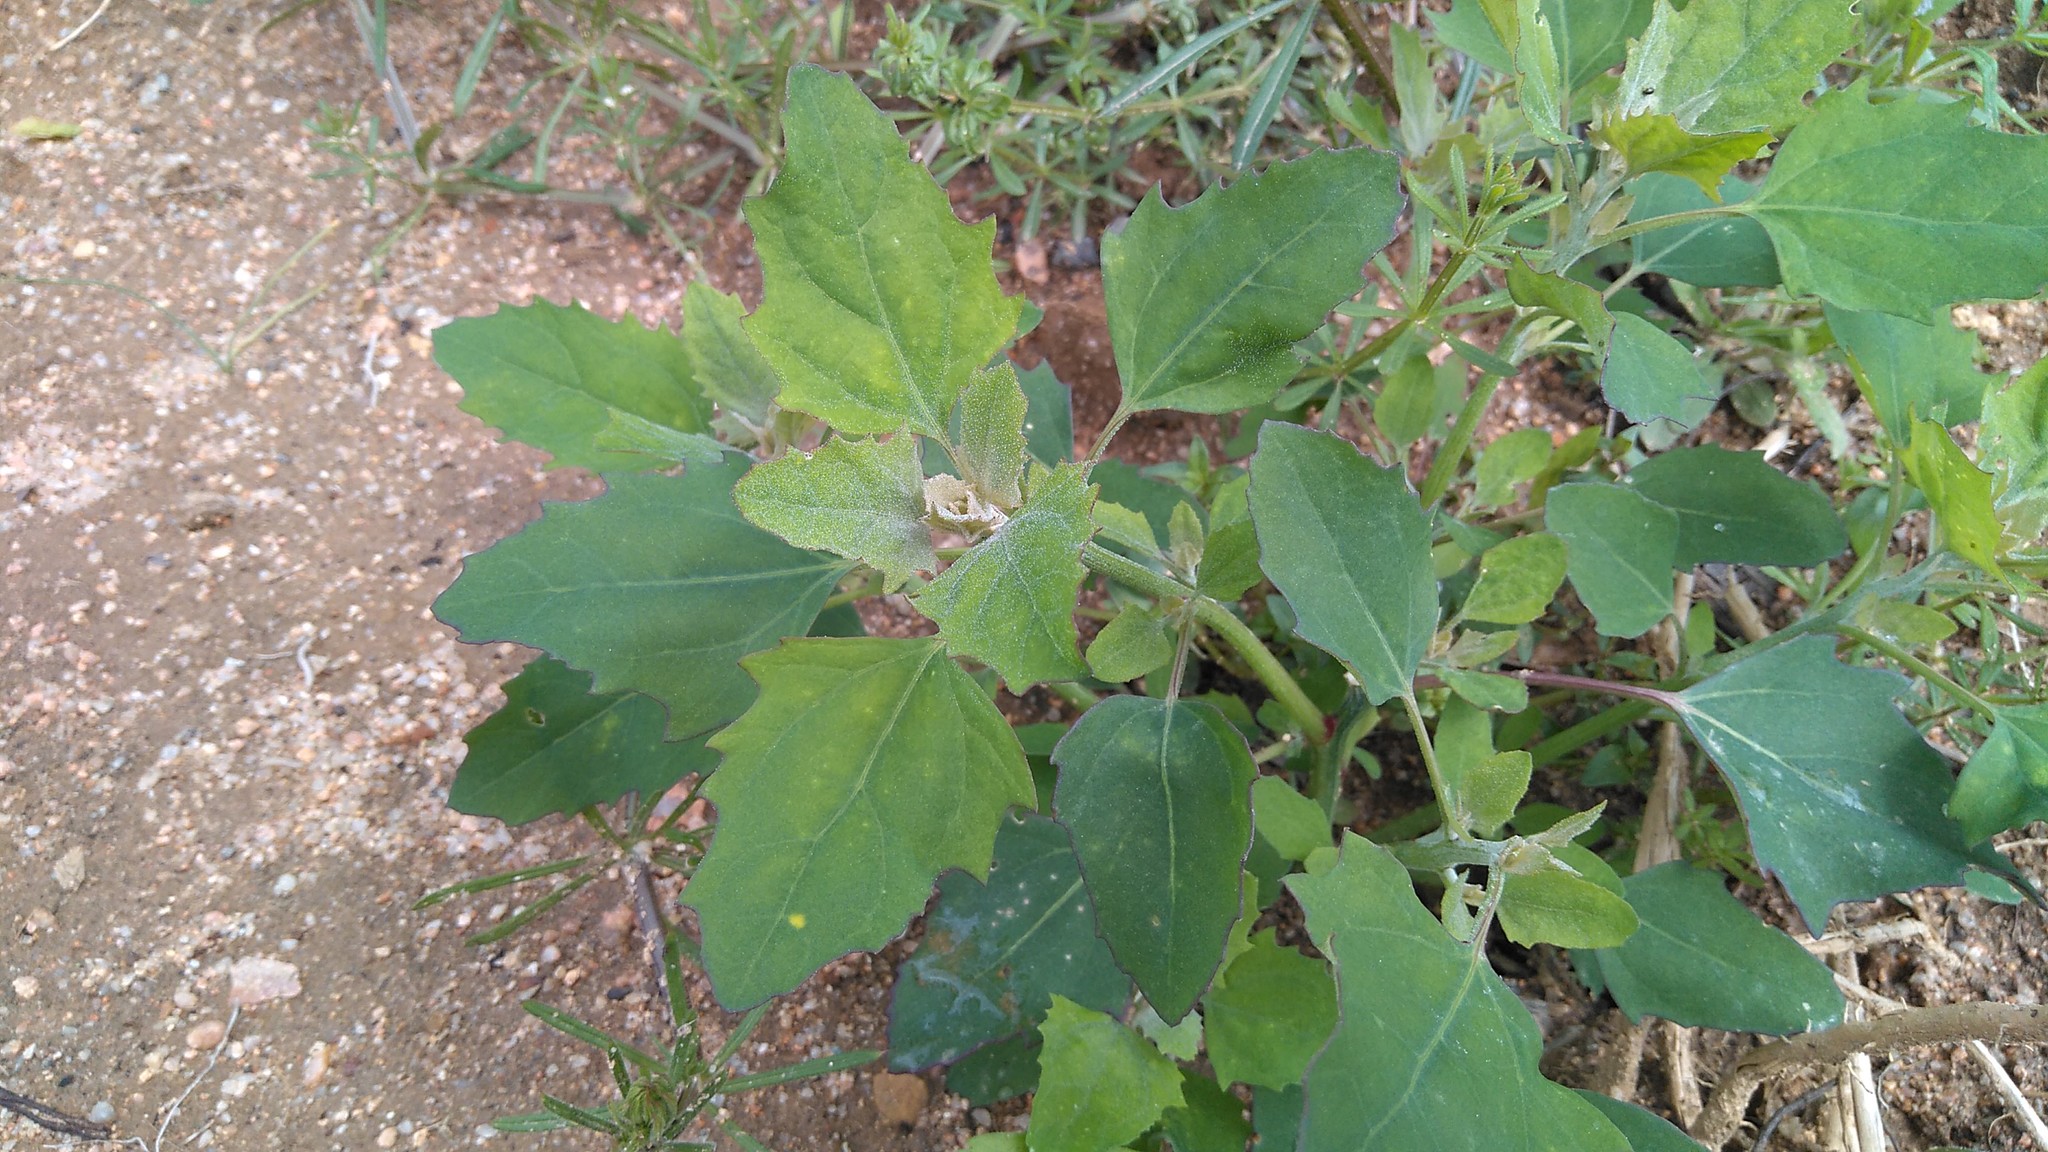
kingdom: Plantae
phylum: Tracheophyta
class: Magnoliopsida
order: Caryophyllales
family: Amaranthaceae
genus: Chenopodium
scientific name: Chenopodium album
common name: Fat-hen
